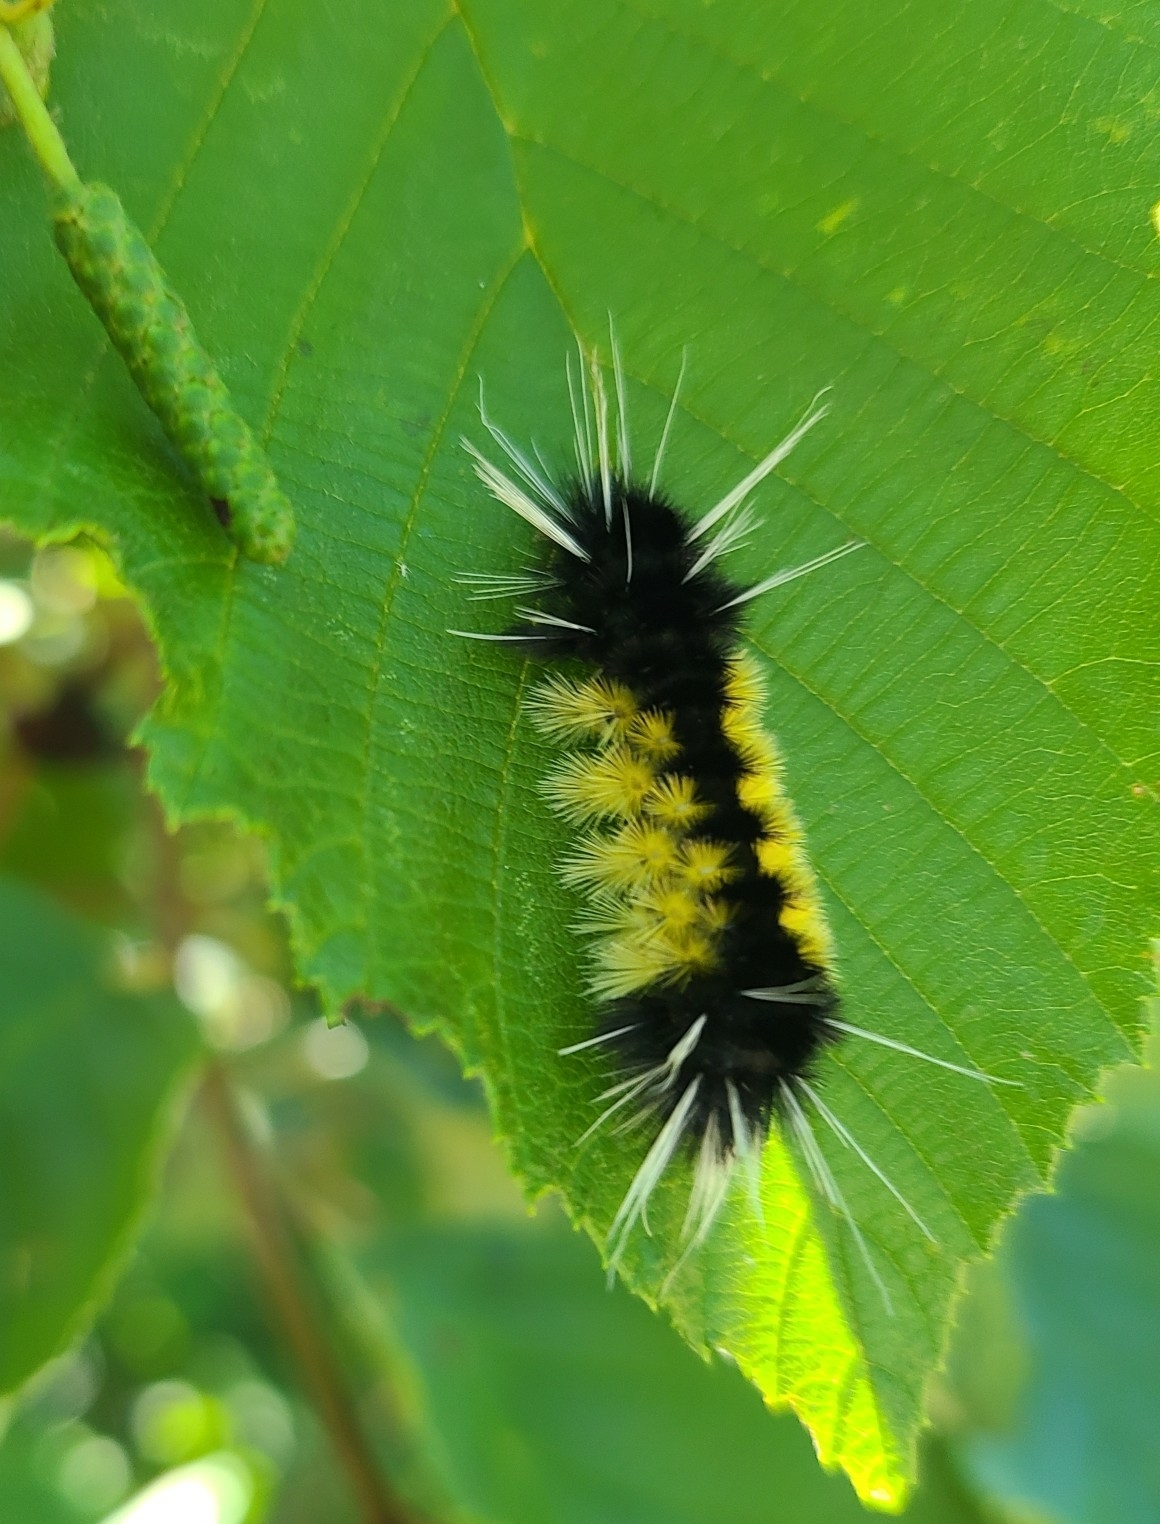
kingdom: Animalia
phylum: Arthropoda
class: Insecta
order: Lepidoptera
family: Erebidae
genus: Lophocampa
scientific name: Lophocampa maculata
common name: Spotted tussock moth
